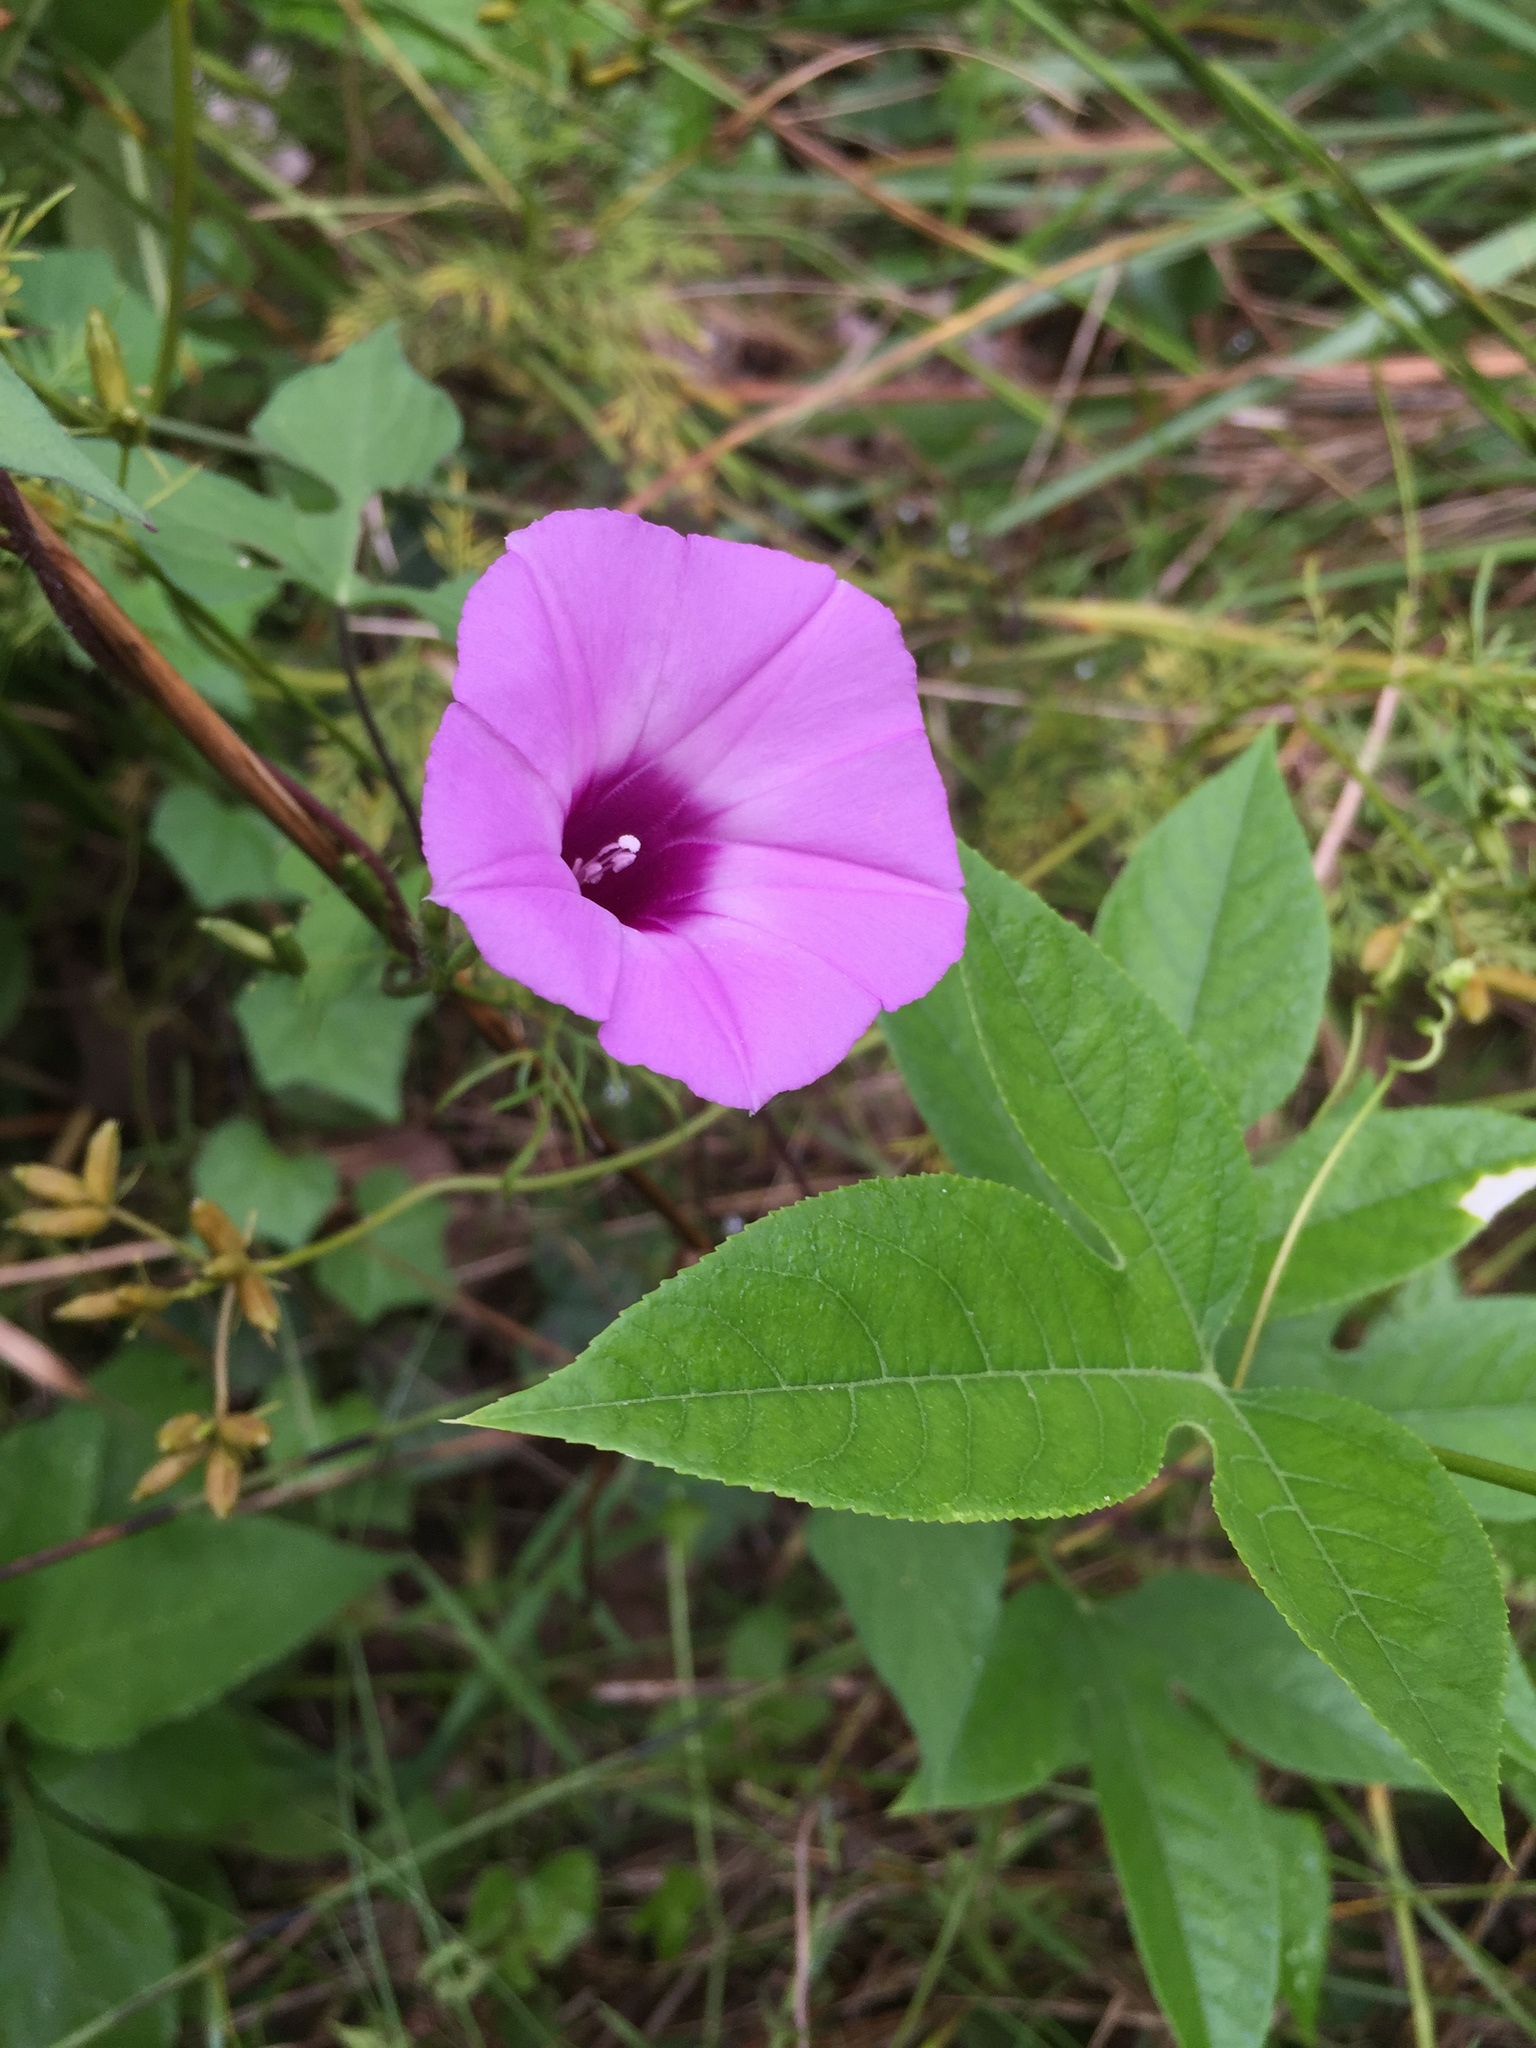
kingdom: Plantae
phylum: Tracheophyta
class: Magnoliopsida
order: Solanales
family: Convolvulaceae
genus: Ipomoea
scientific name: Ipomoea cordatotriloba
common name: Cotton morning glory
